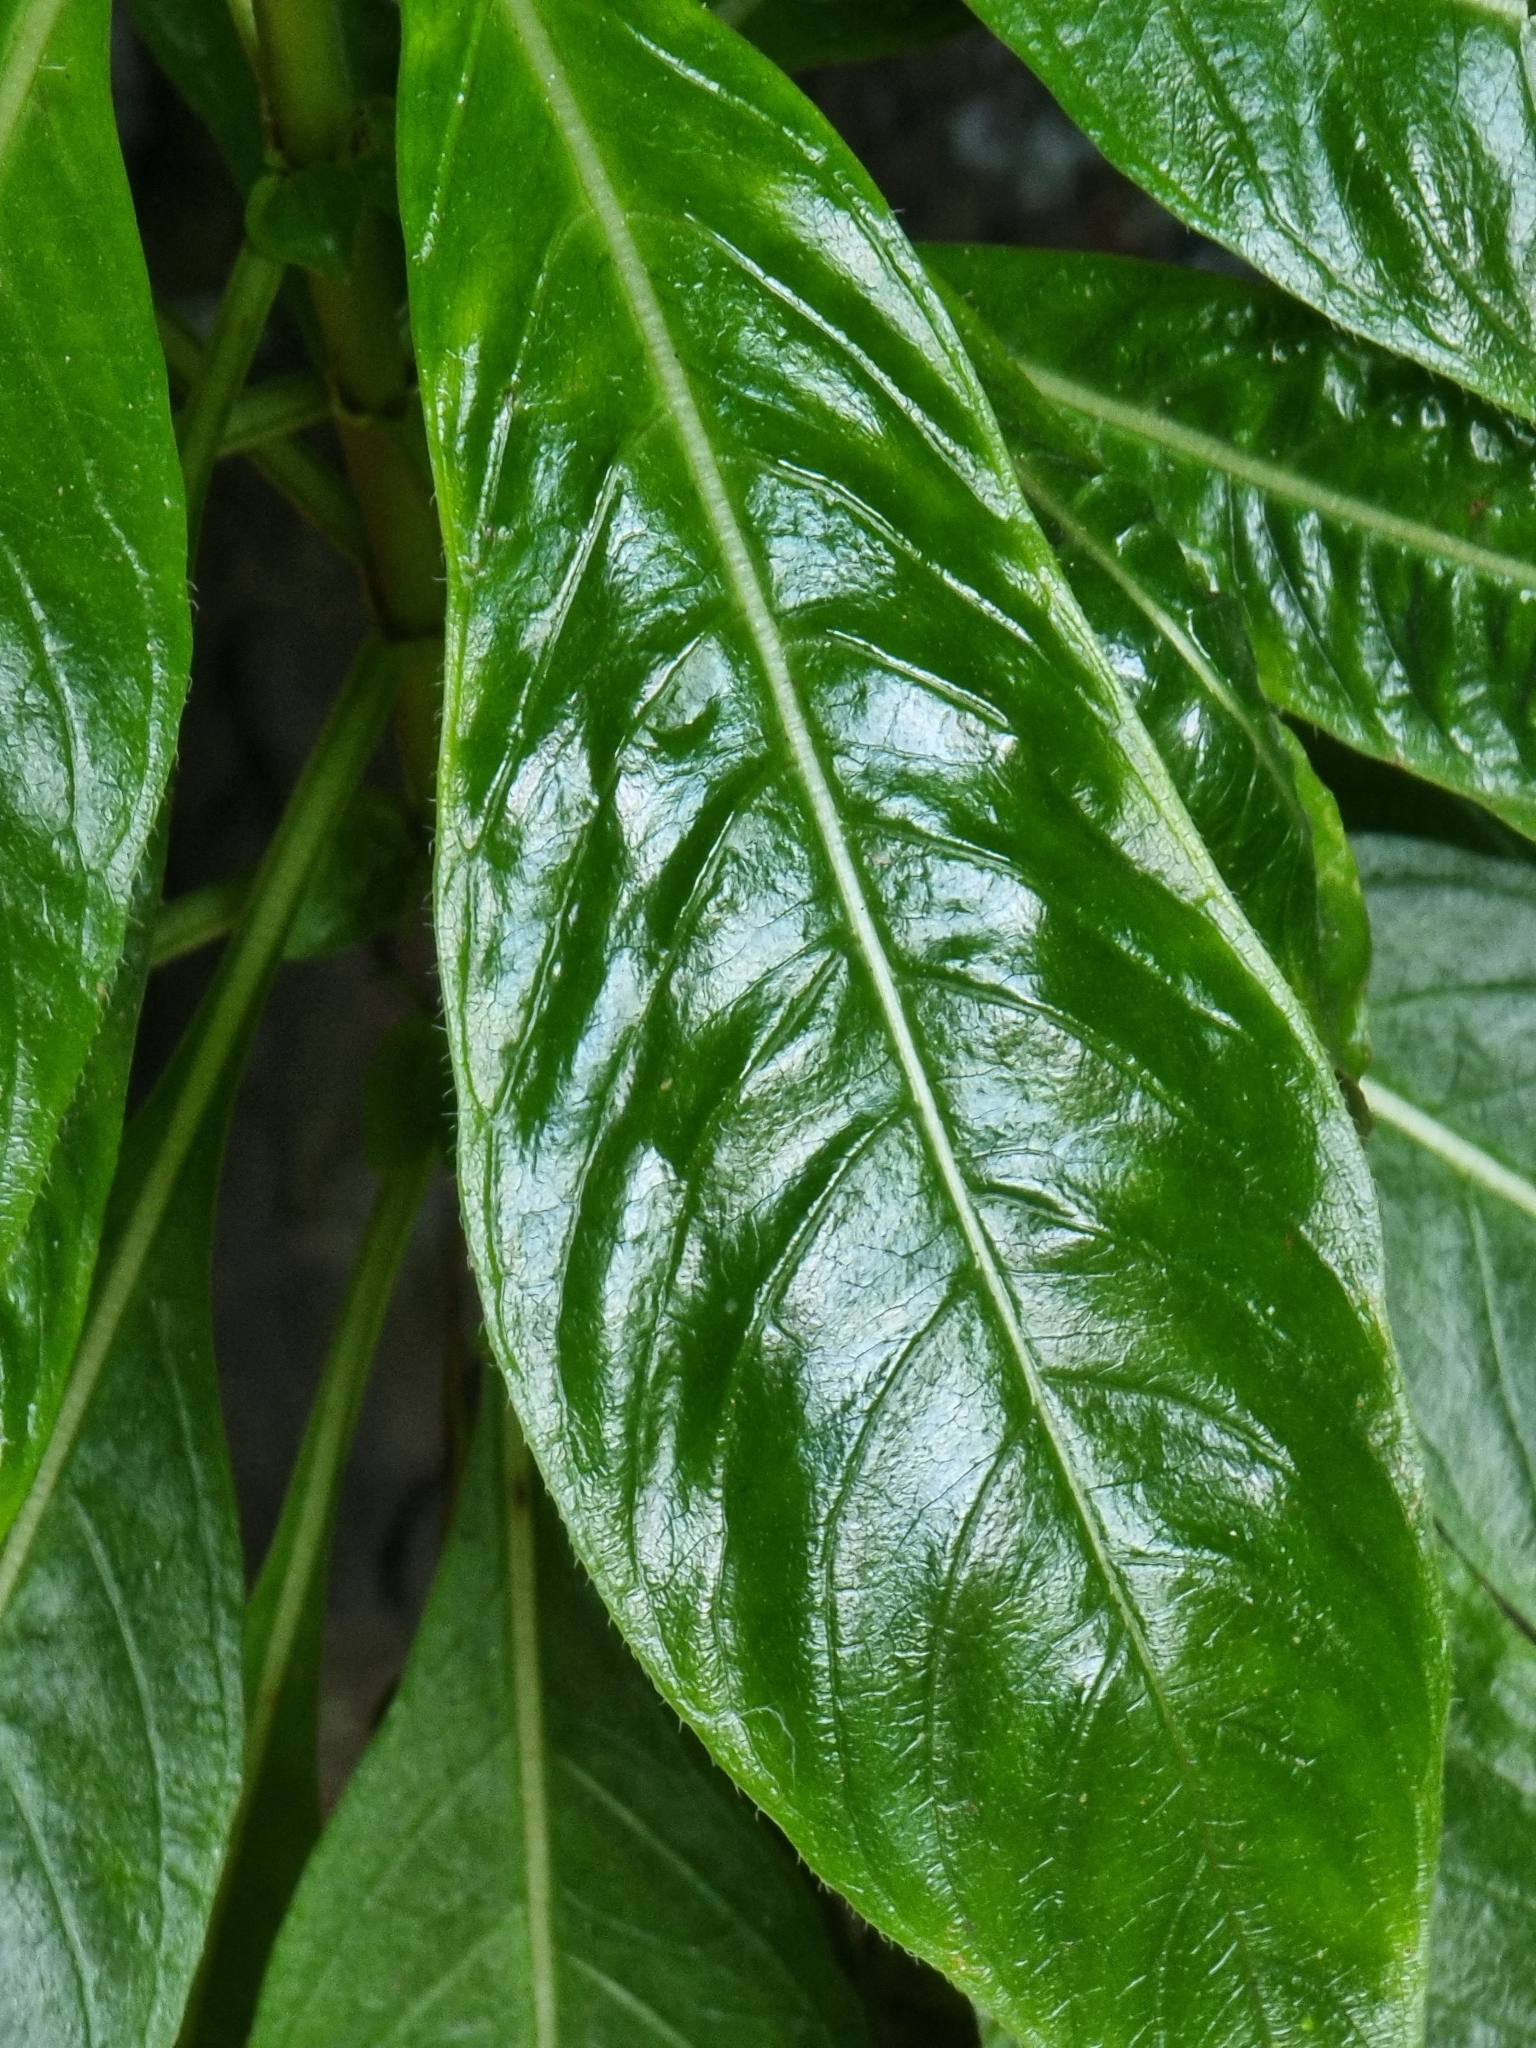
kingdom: Plantae
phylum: Tracheophyta
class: Magnoliopsida
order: Gentianales
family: Rubiaceae
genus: Phyllis
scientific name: Phyllis nobla
